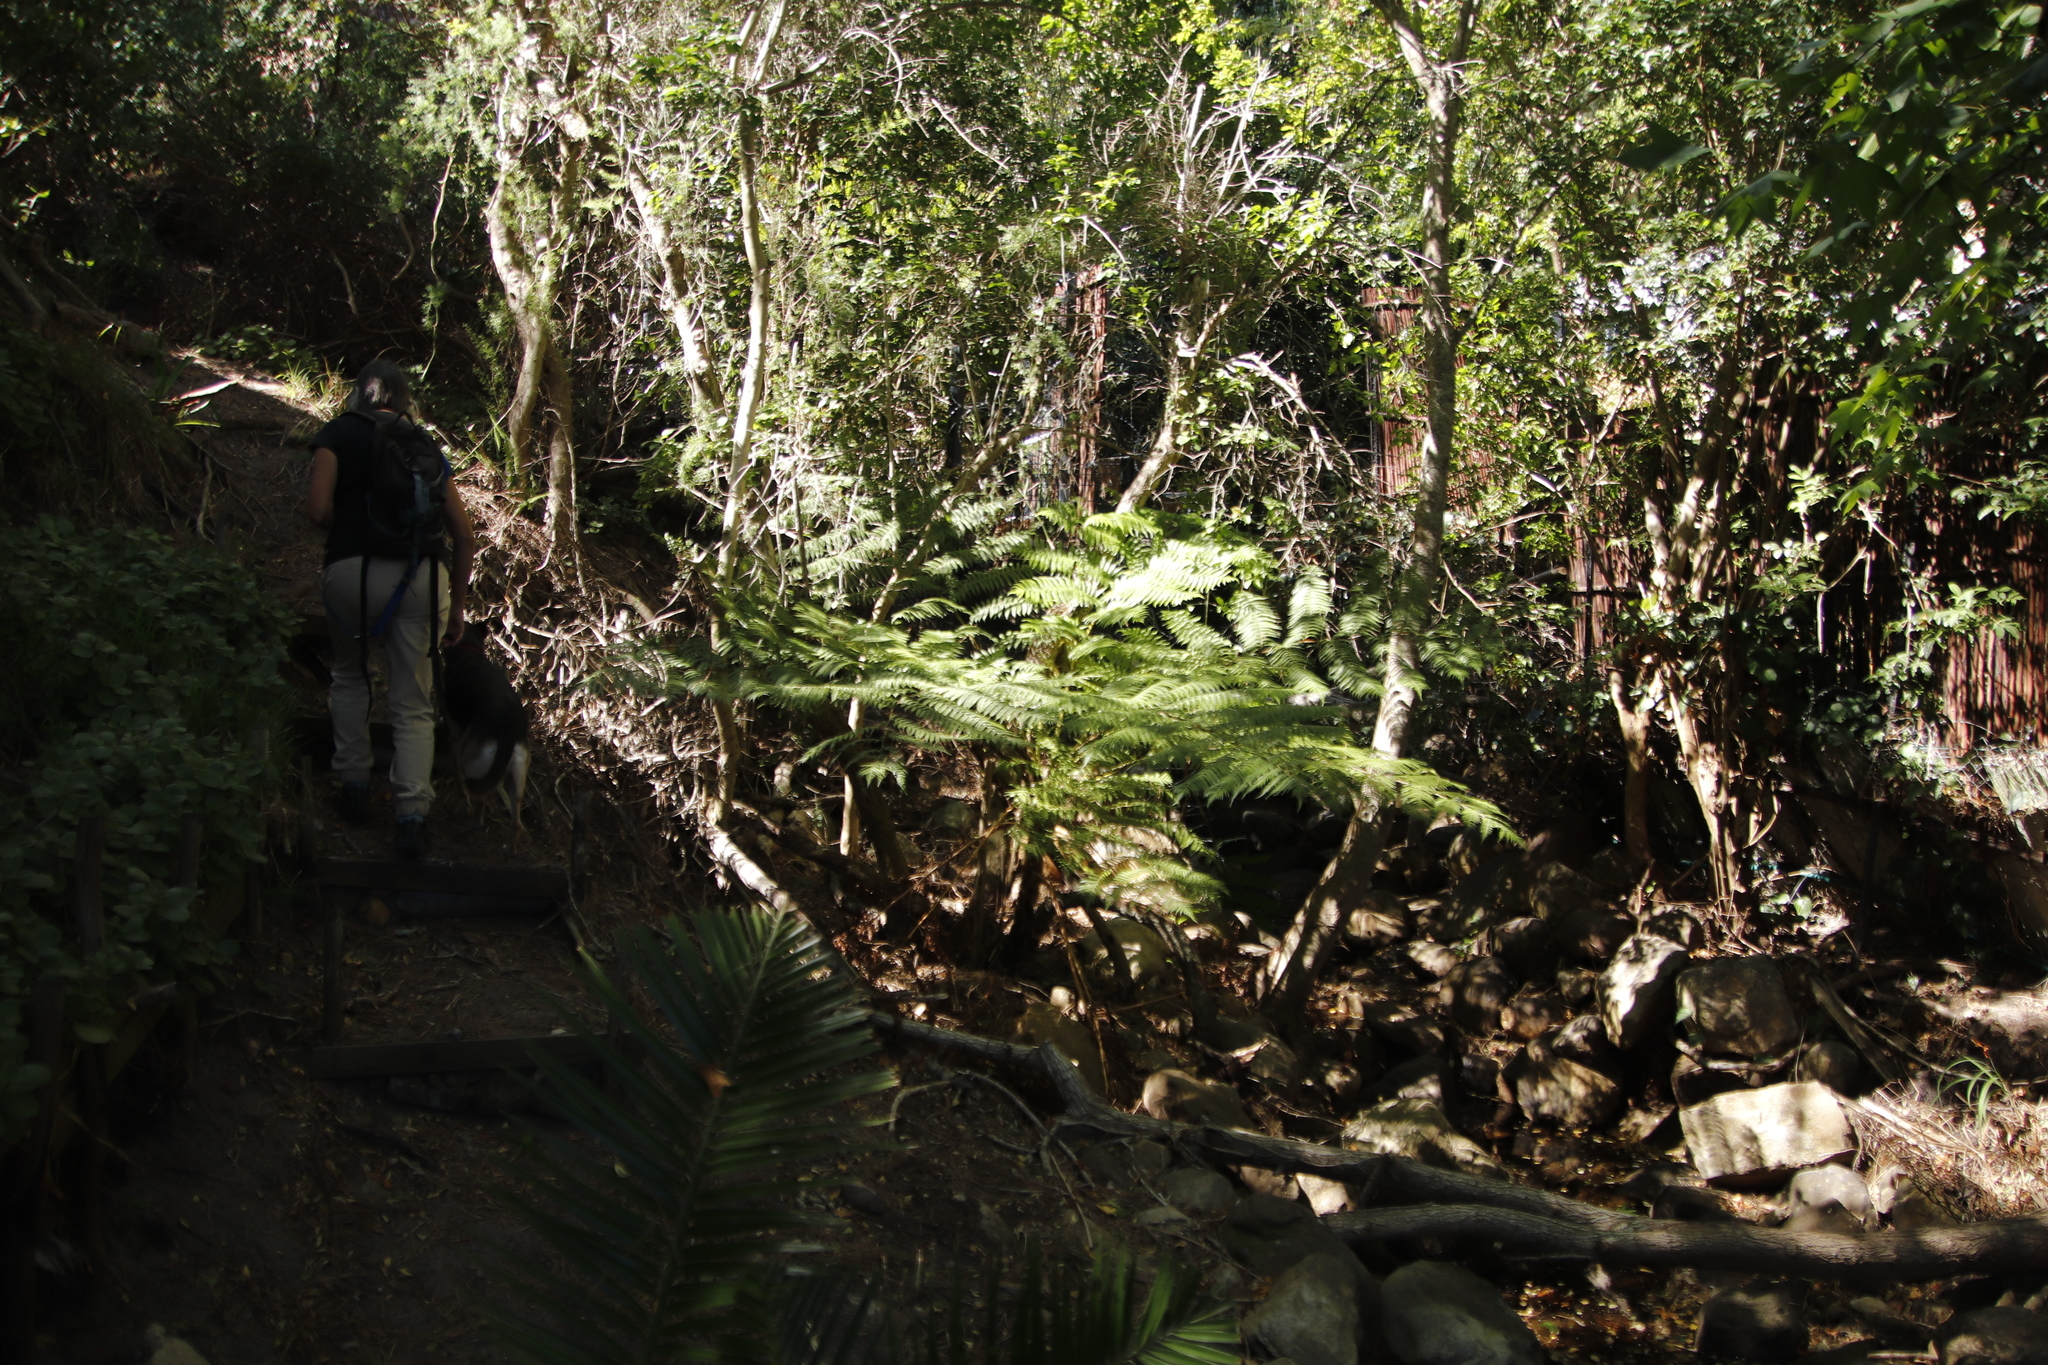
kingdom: Plantae
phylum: Tracheophyta
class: Polypodiopsida
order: Cyatheales
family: Cyatheaceae
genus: Sphaeropteris
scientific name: Sphaeropteris cooperi
